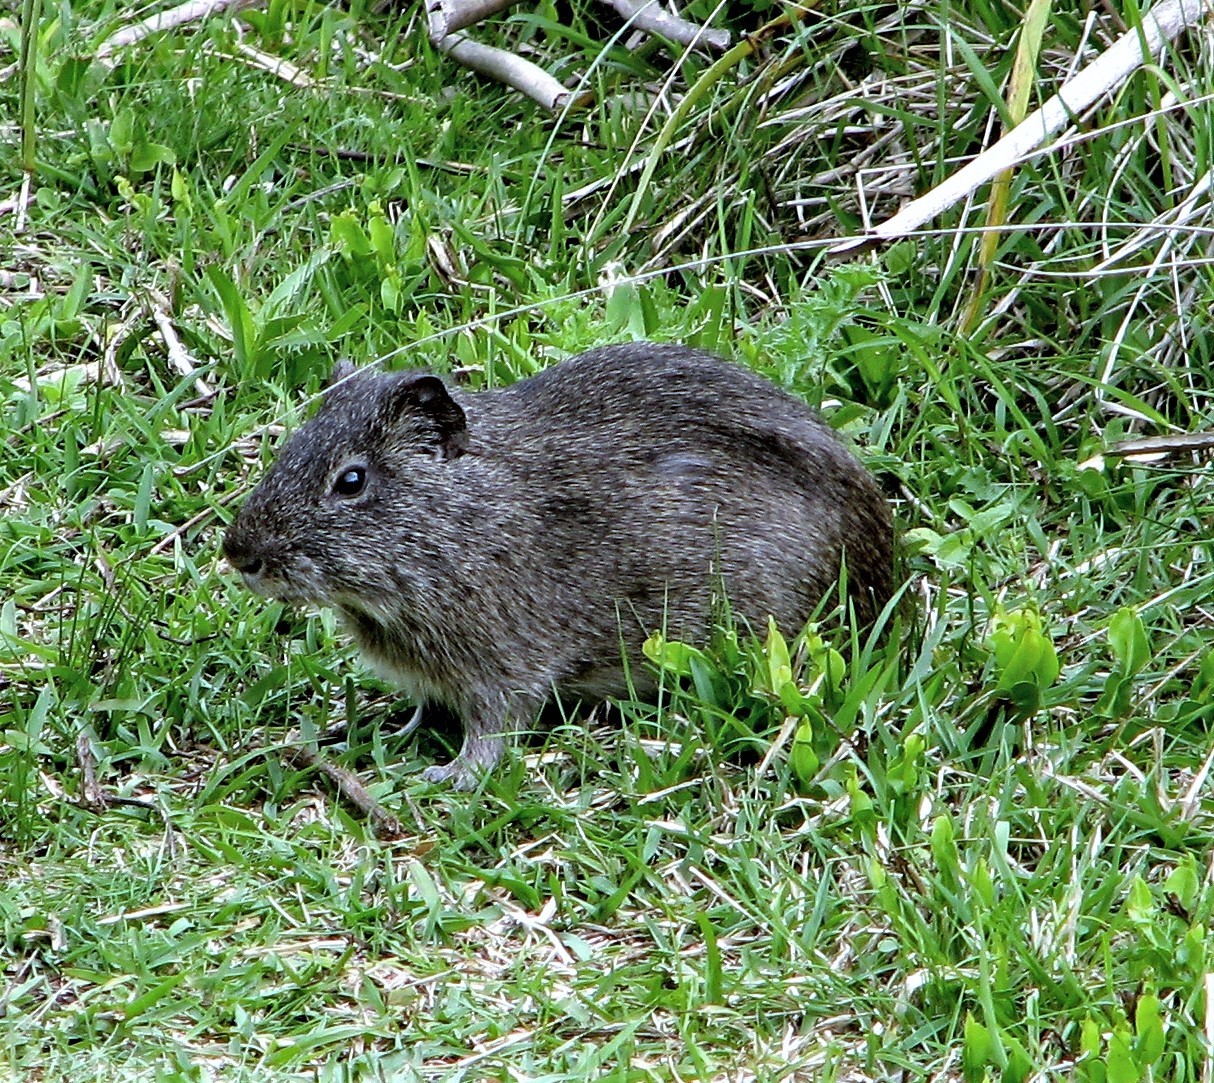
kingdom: Animalia
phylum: Chordata
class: Mammalia
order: Rodentia
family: Caviidae
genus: Cavia
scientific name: Cavia aperea
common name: Brazilian guinea pig
